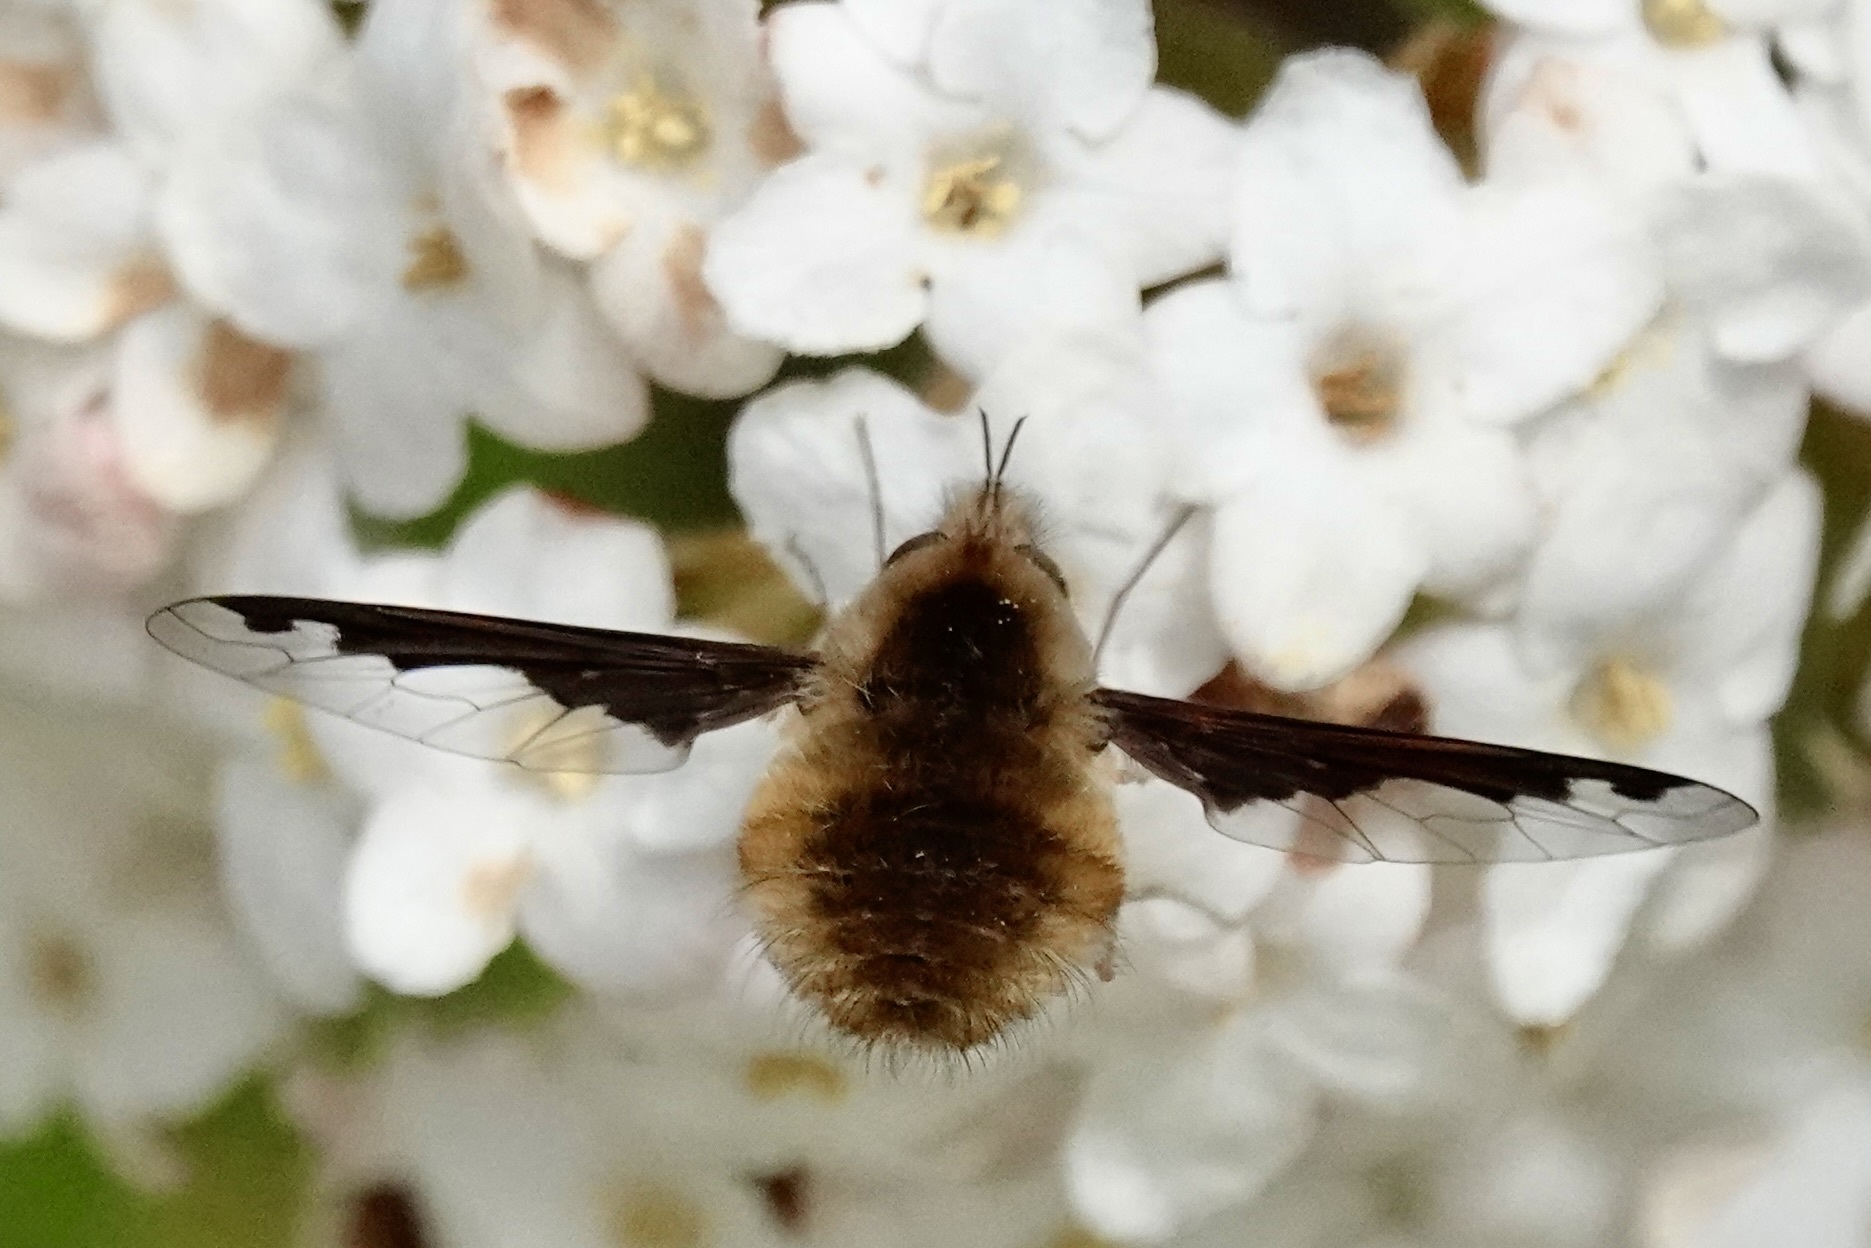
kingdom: Animalia
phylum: Arthropoda
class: Insecta
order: Diptera
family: Bombyliidae
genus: Bombylius
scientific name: Bombylius major
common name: Bee fly
